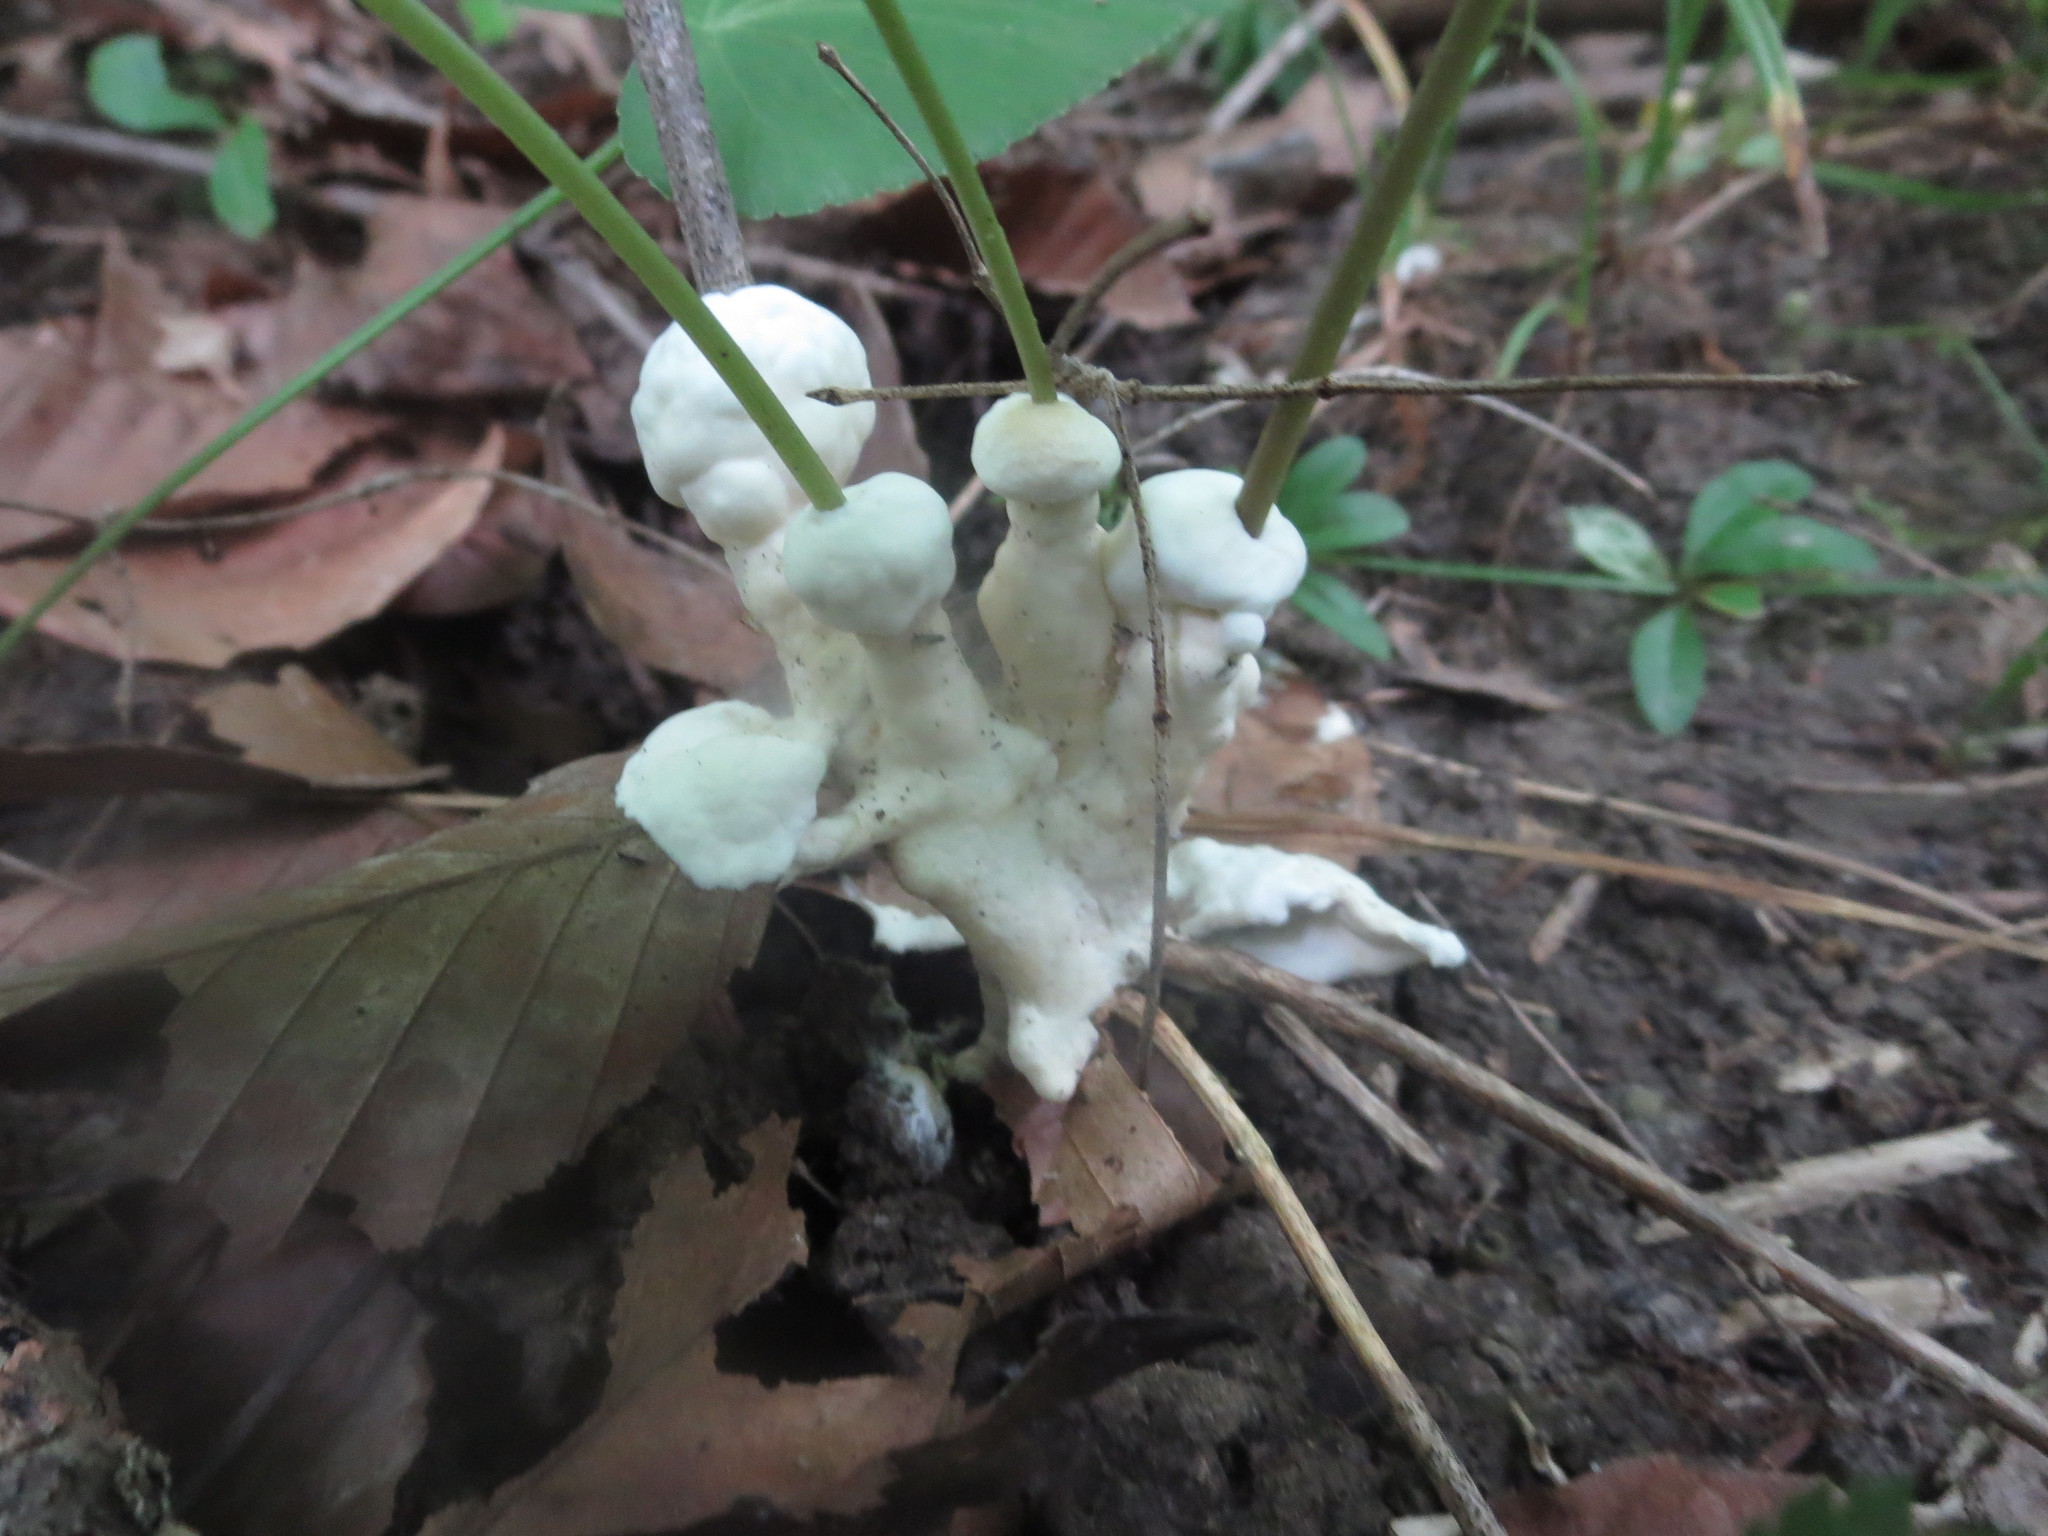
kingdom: Fungi
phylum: Basidiomycota
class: Agaricomycetes
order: Sebacinales
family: Sebacinaceae
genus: Sebacina
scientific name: Sebacina incrustans
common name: Enveloping crust
